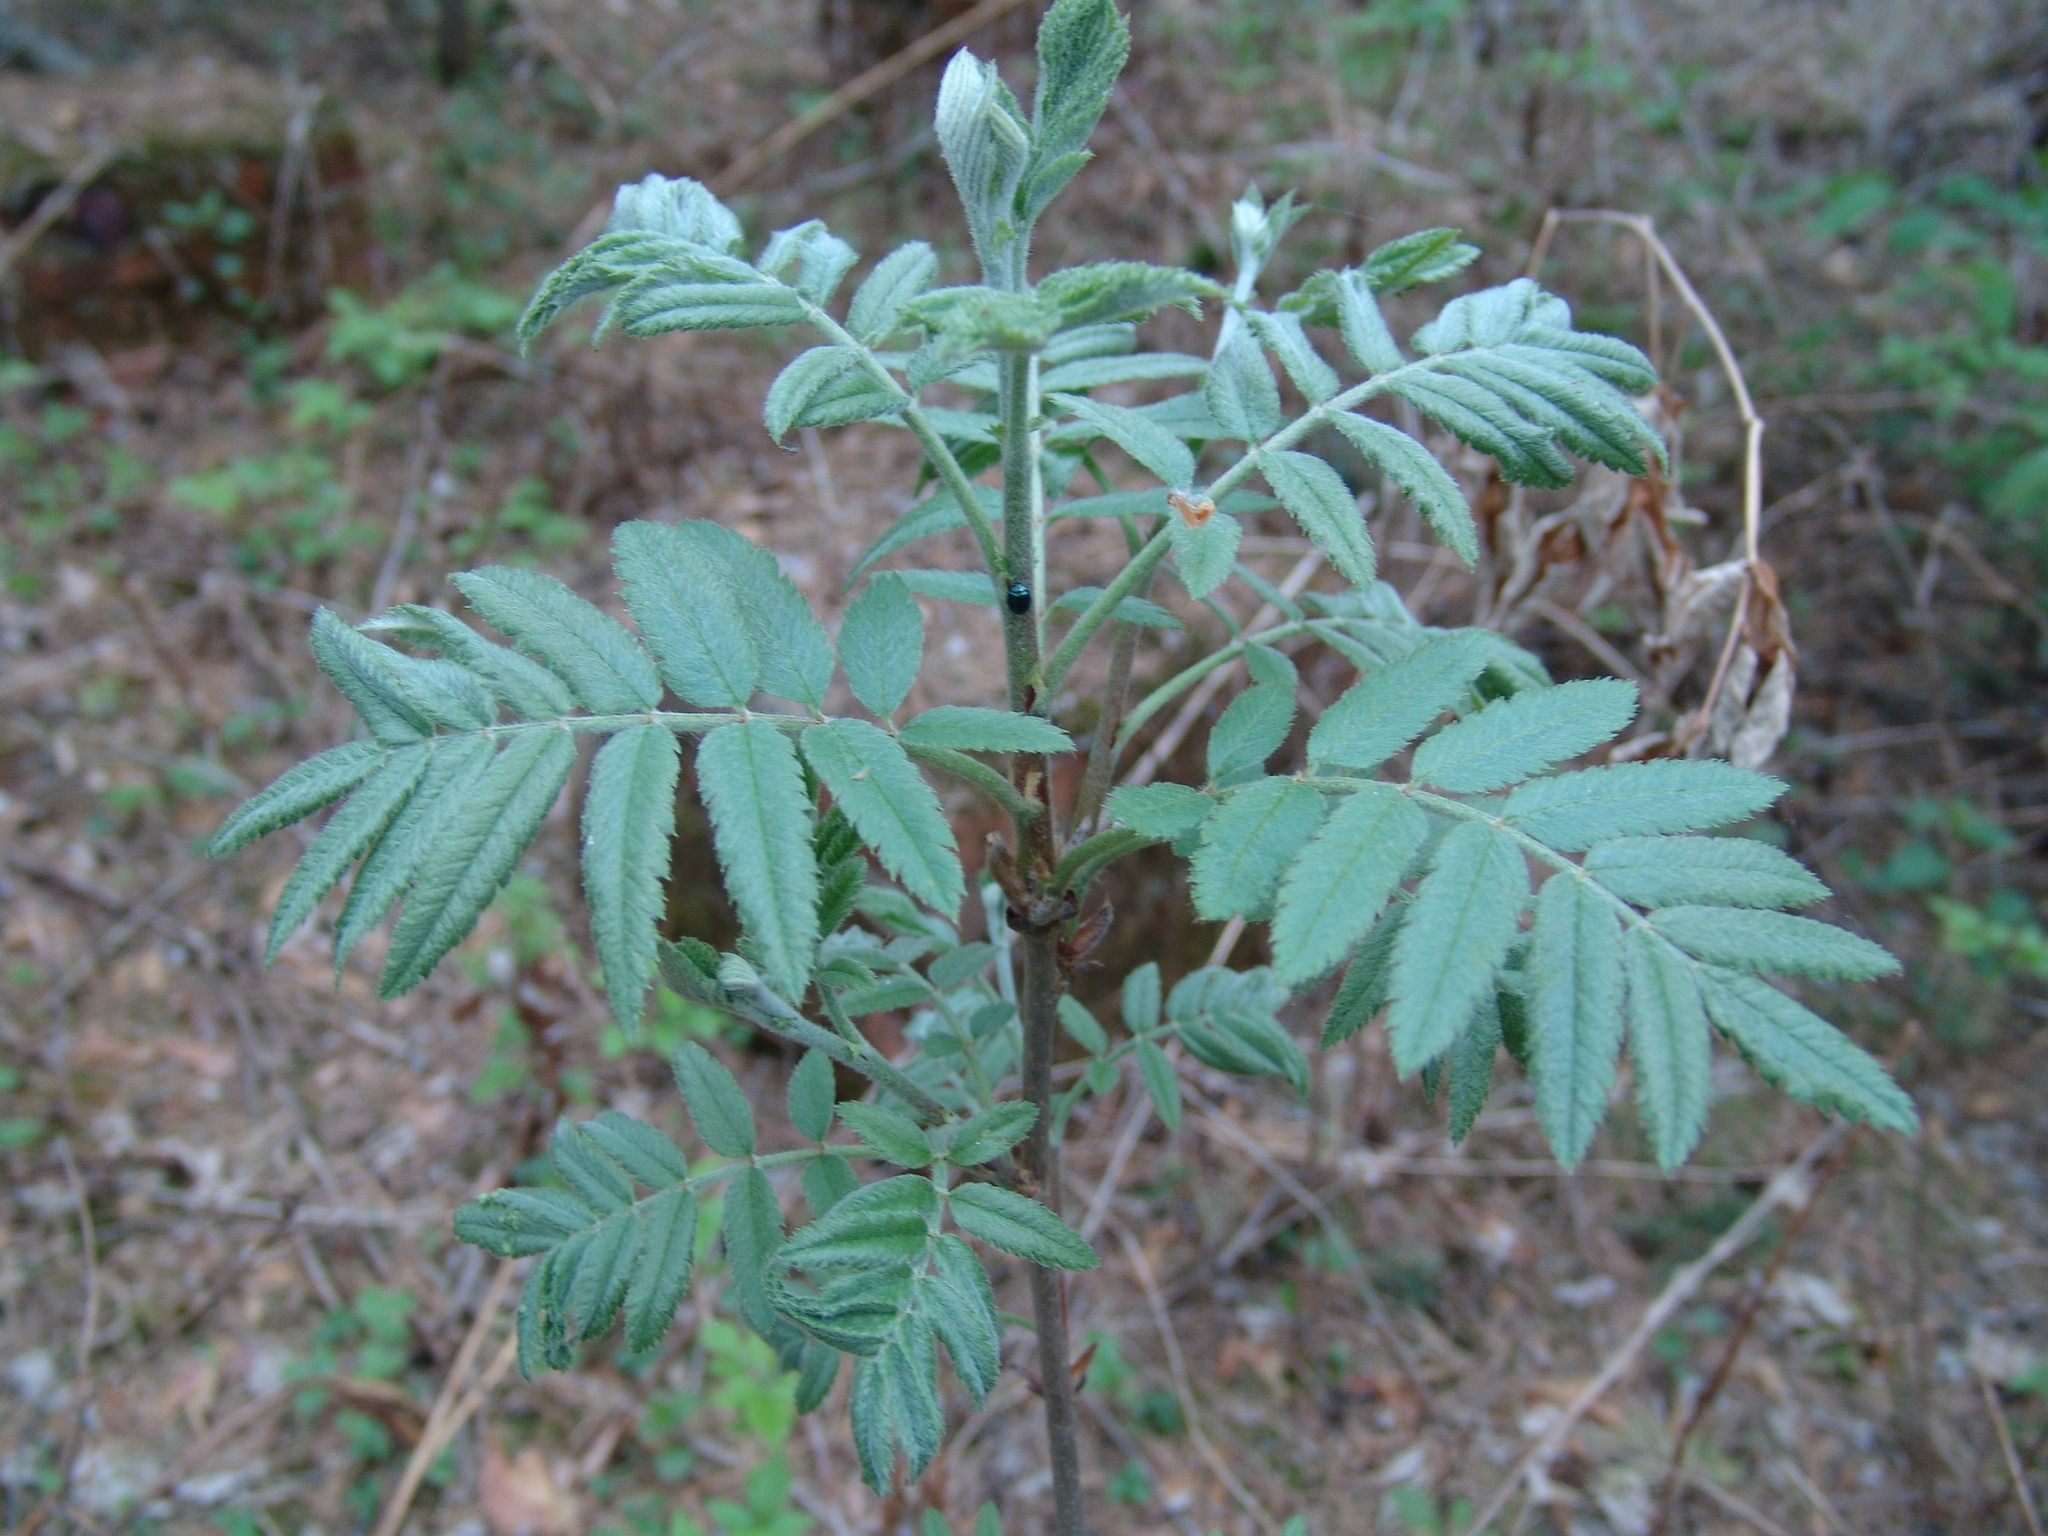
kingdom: Plantae
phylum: Tracheophyta
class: Magnoliopsida
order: Rosales
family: Rosaceae
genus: Sorbus
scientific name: Sorbus aucuparia
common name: Rowan
